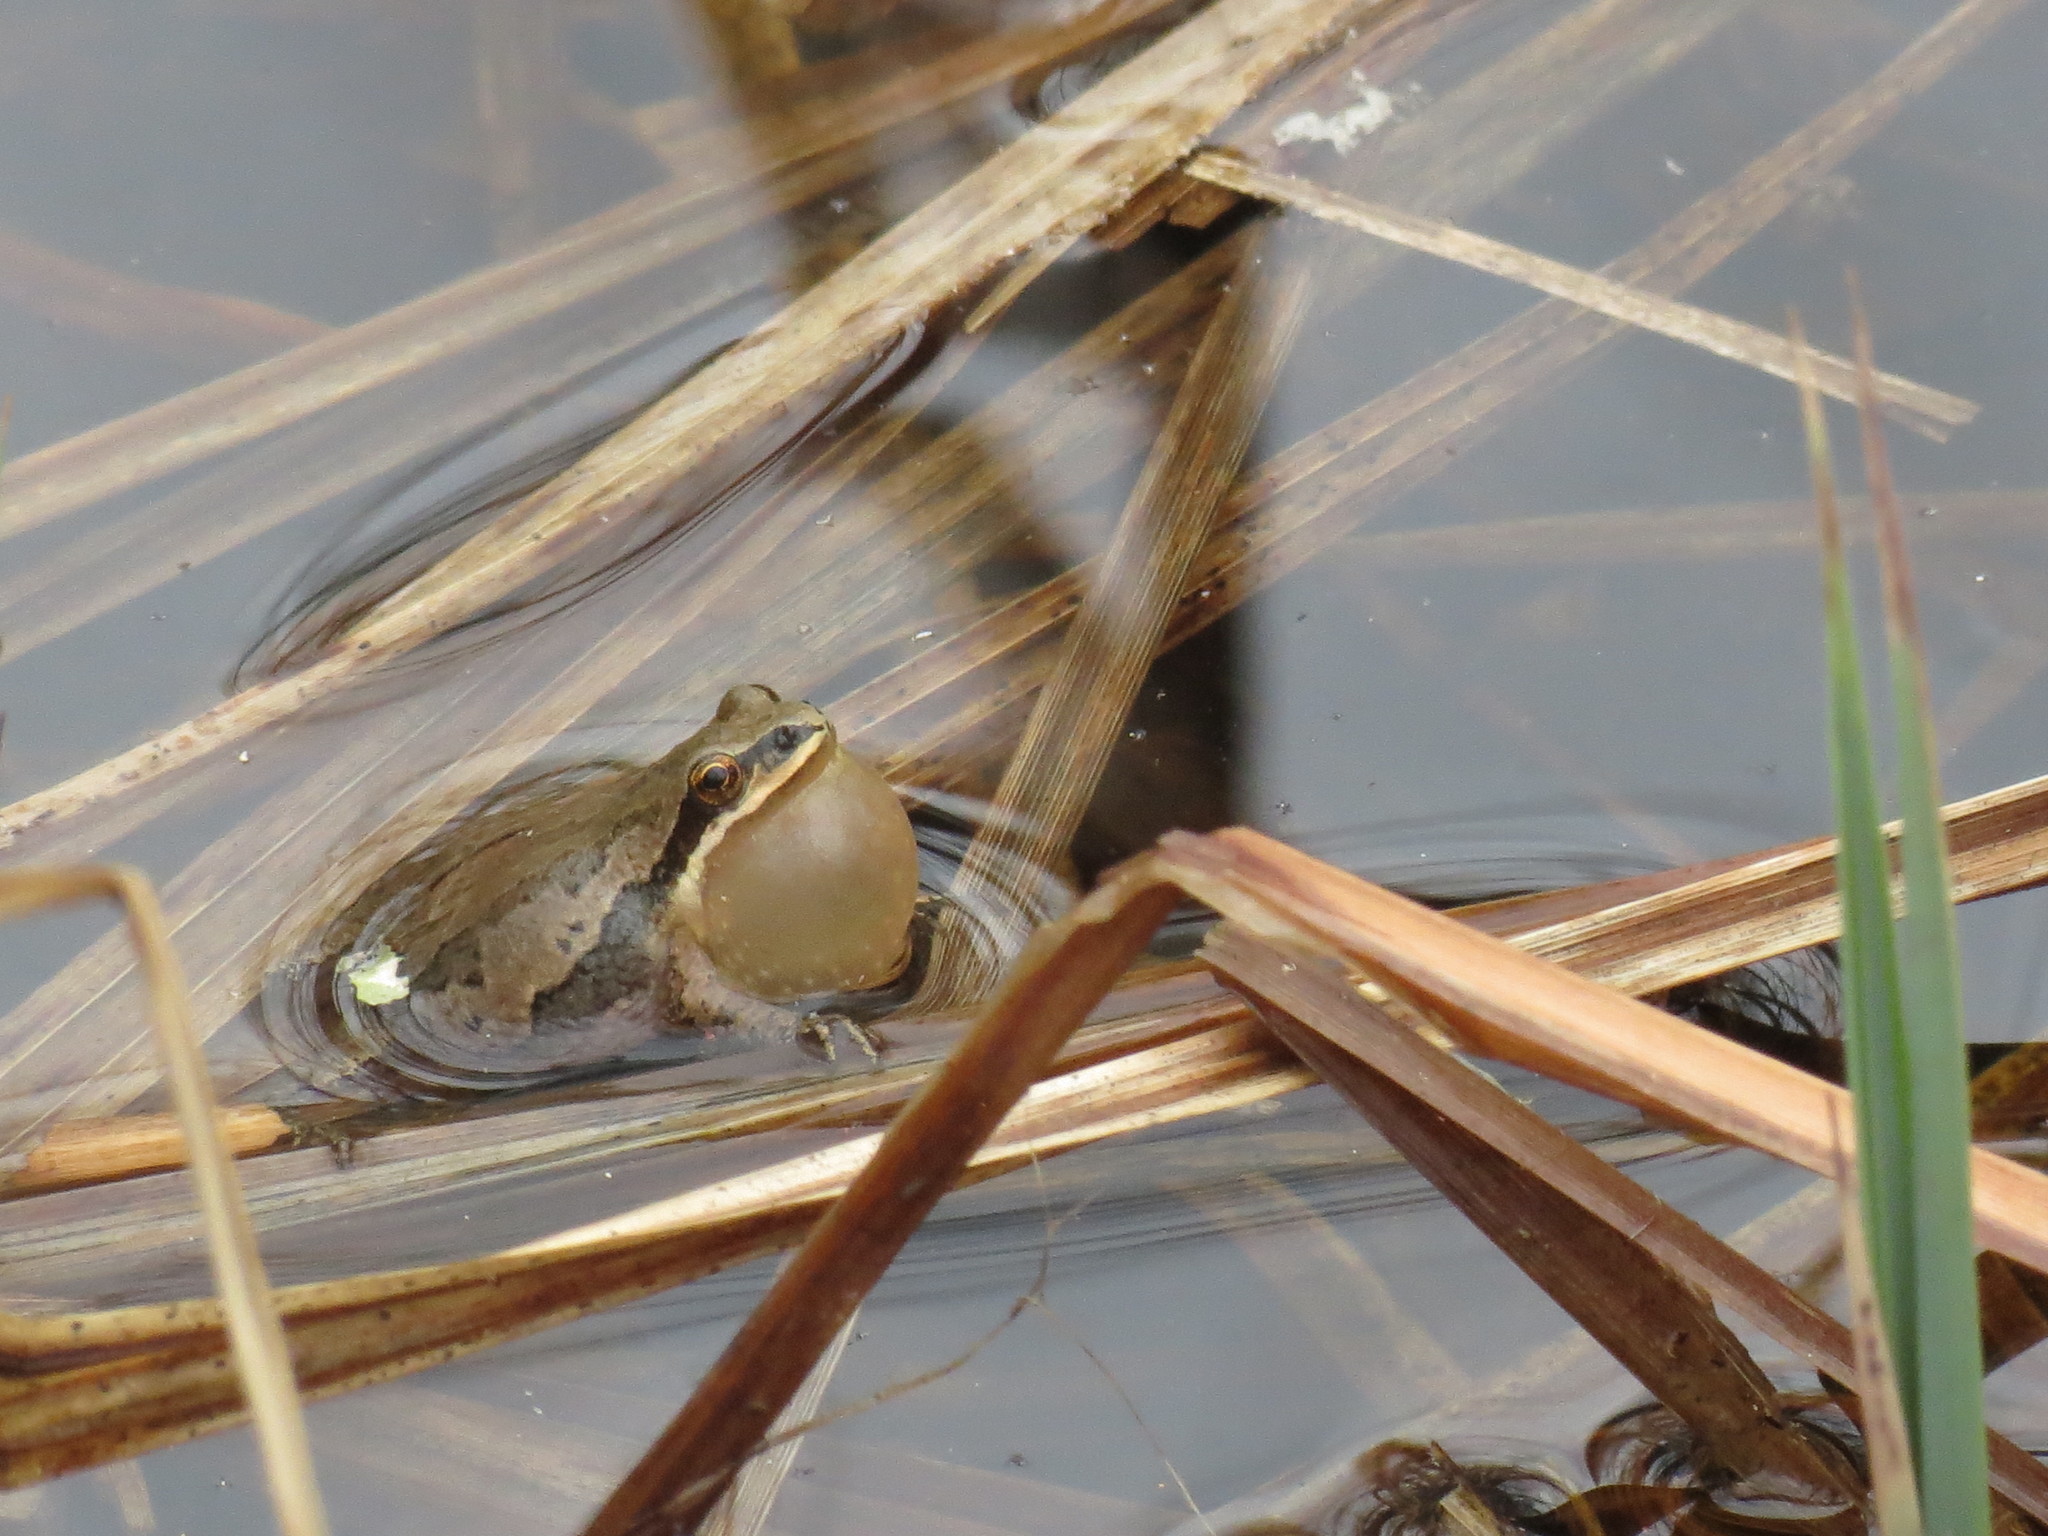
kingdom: Animalia
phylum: Chordata
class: Amphibia
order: Anura
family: Hylidae
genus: Pseudacris
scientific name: Pseudacris triseriata
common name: Western chorus frog
